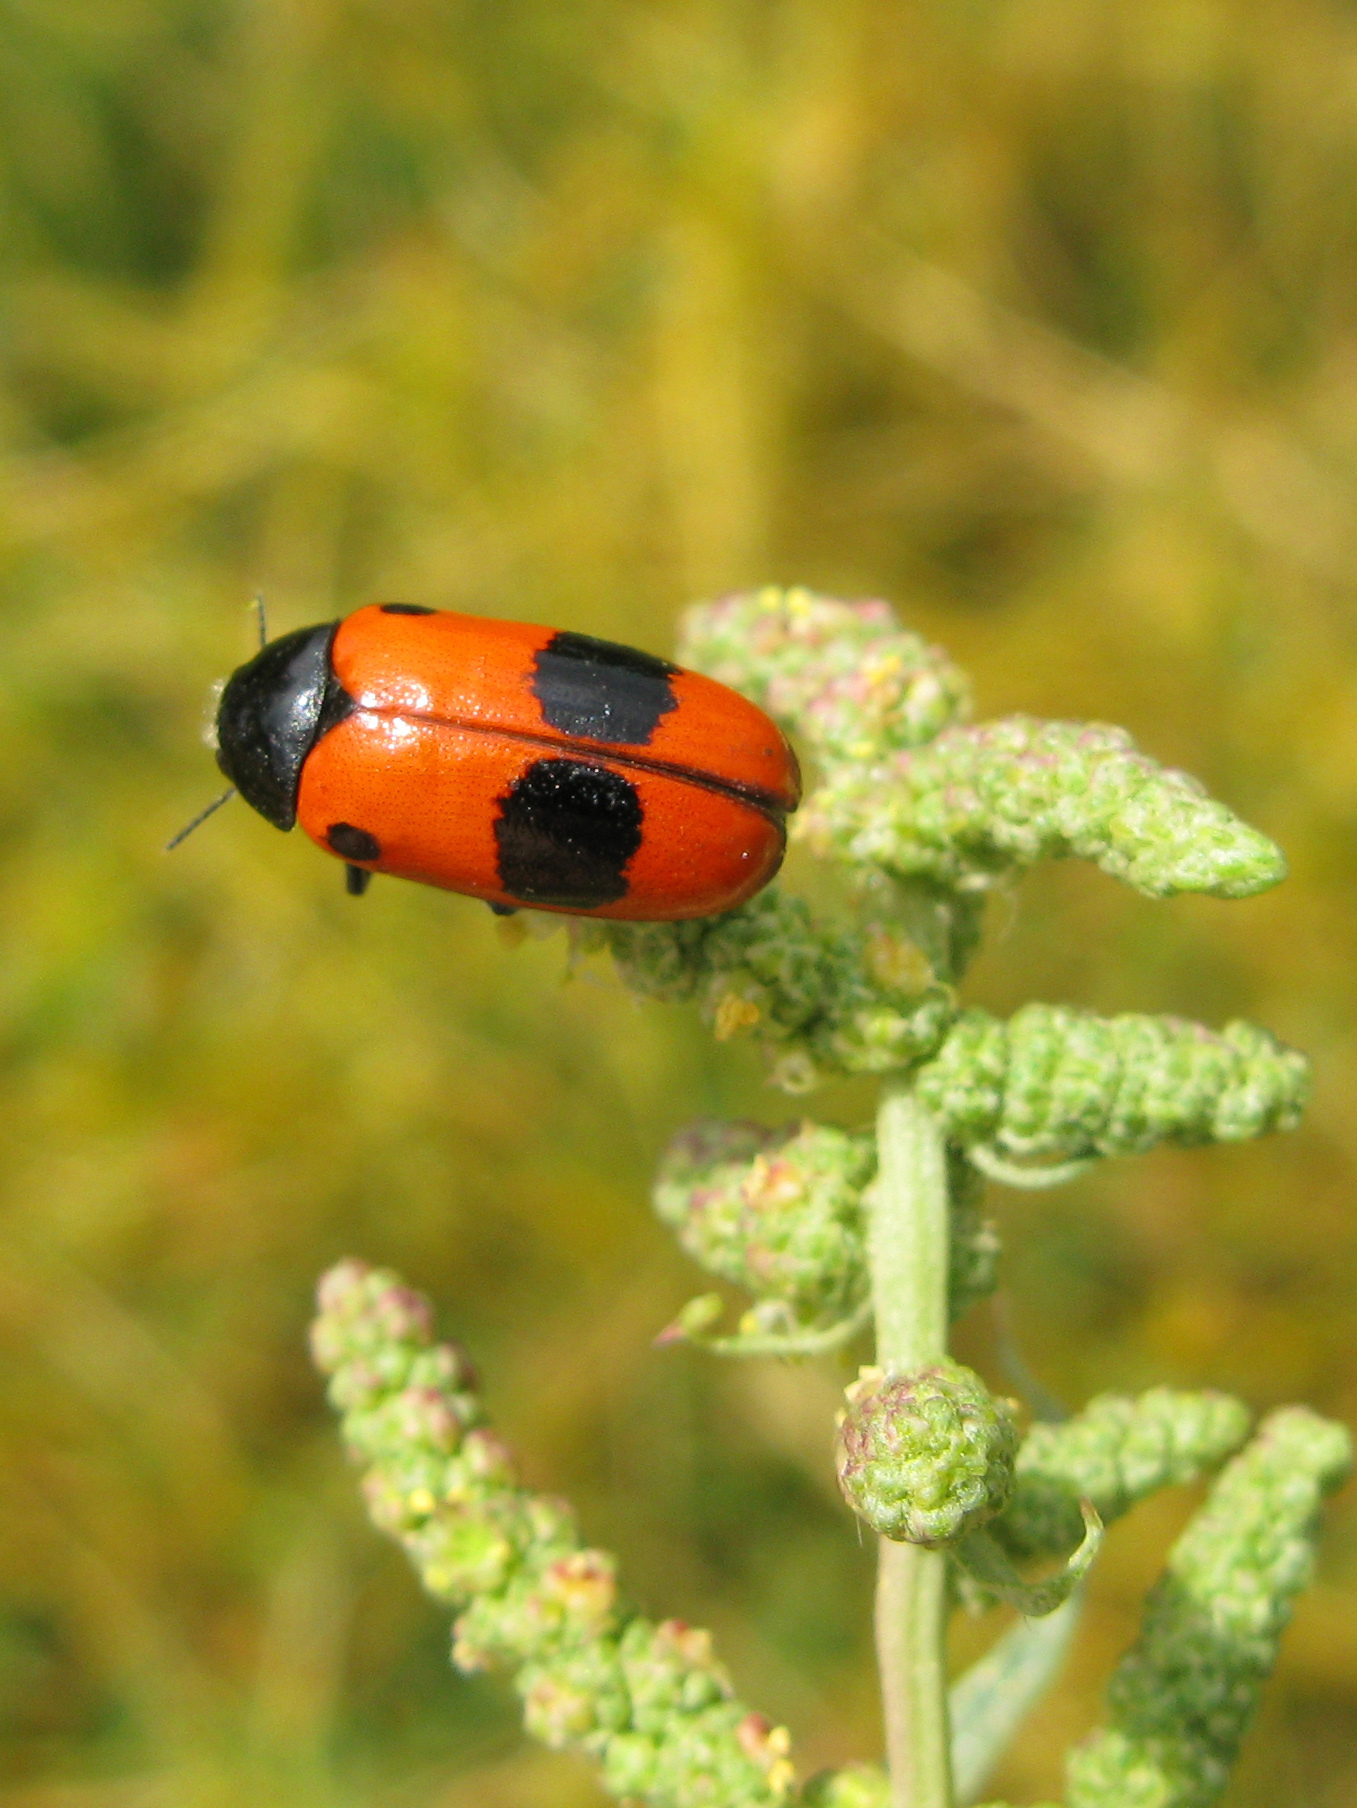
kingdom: Animalia
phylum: Arthropoda
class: Insecta
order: Coleoptera
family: Chrysomelidae
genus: Clytra
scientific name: Clytra laeviuscula
